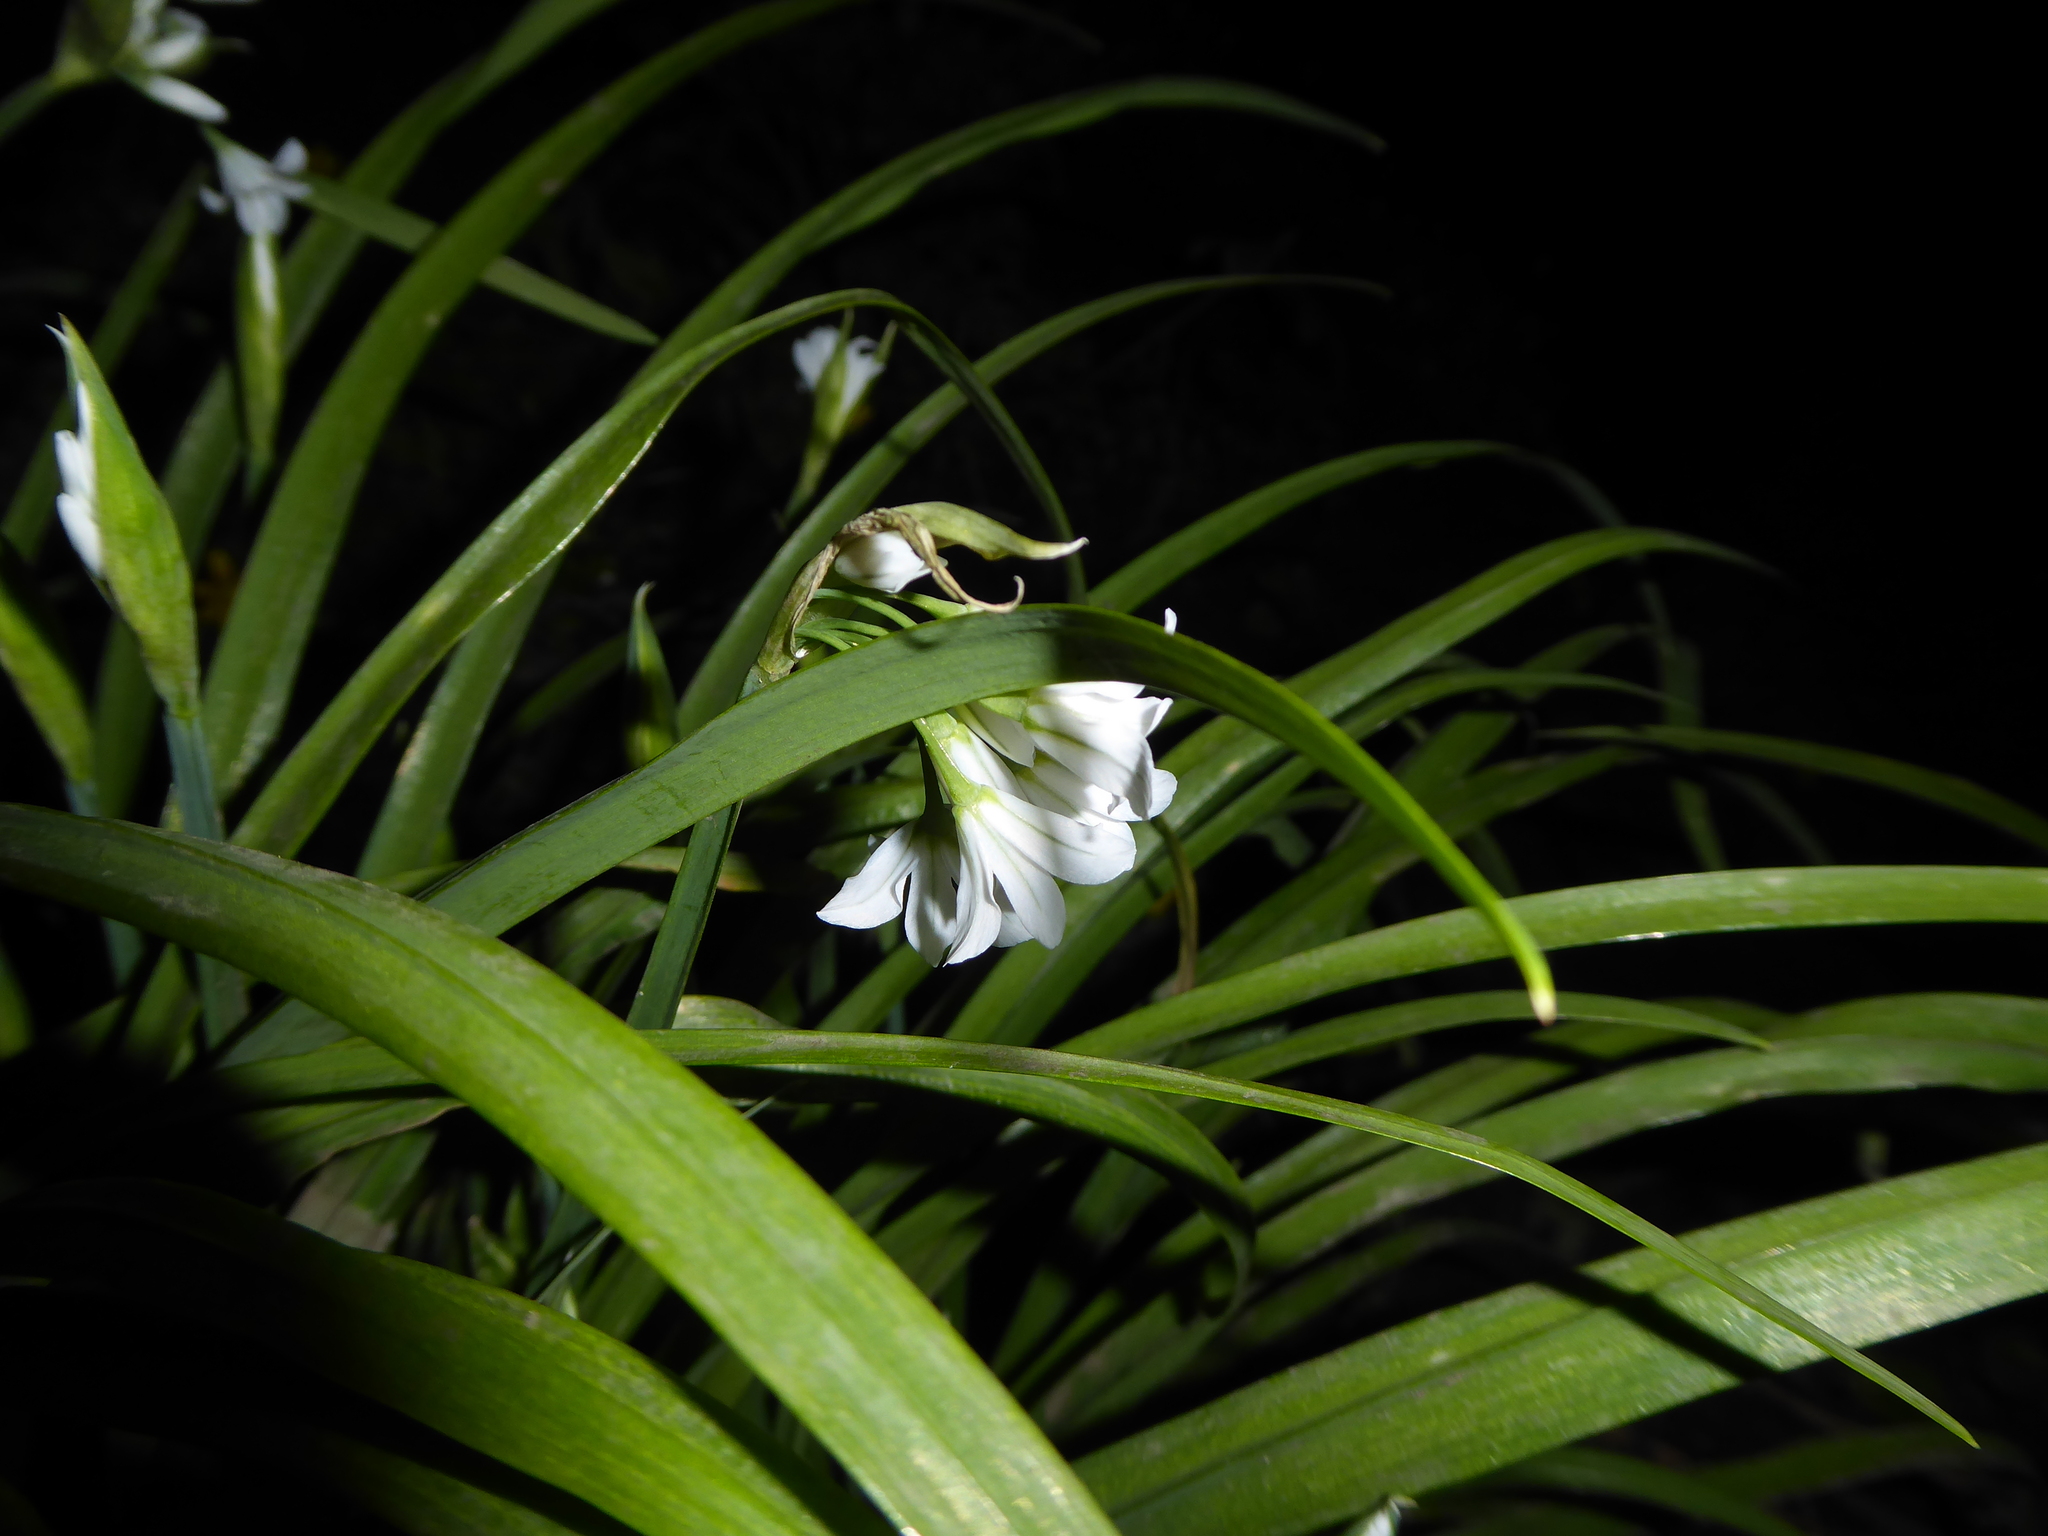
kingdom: Plantae
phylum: Tracheophyta
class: Liliopsida
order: Asparagales
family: Amaryllidaceae
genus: Allium
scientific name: Allium triquetrum
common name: Three-cornered garlic
